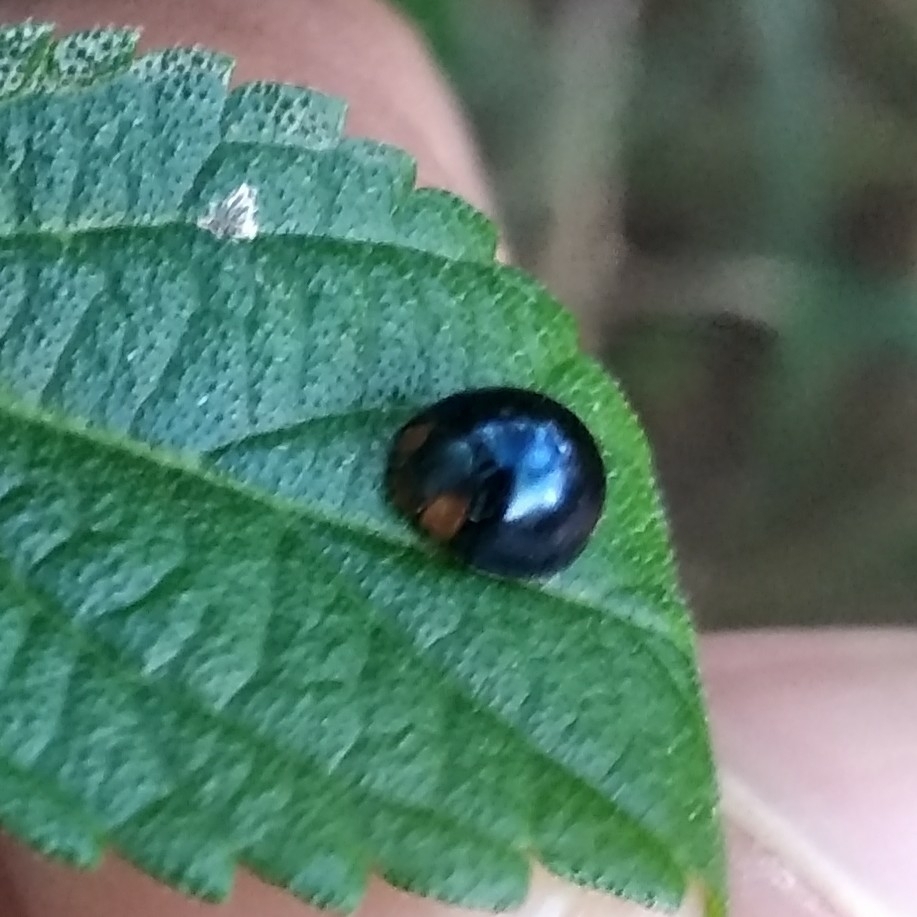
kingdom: Animalia
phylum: Arthropoda
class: Insecta
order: Coleoptera
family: Coccinellidae
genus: Curinus
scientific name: Curinus coeruleus
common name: Ladybird beetle
